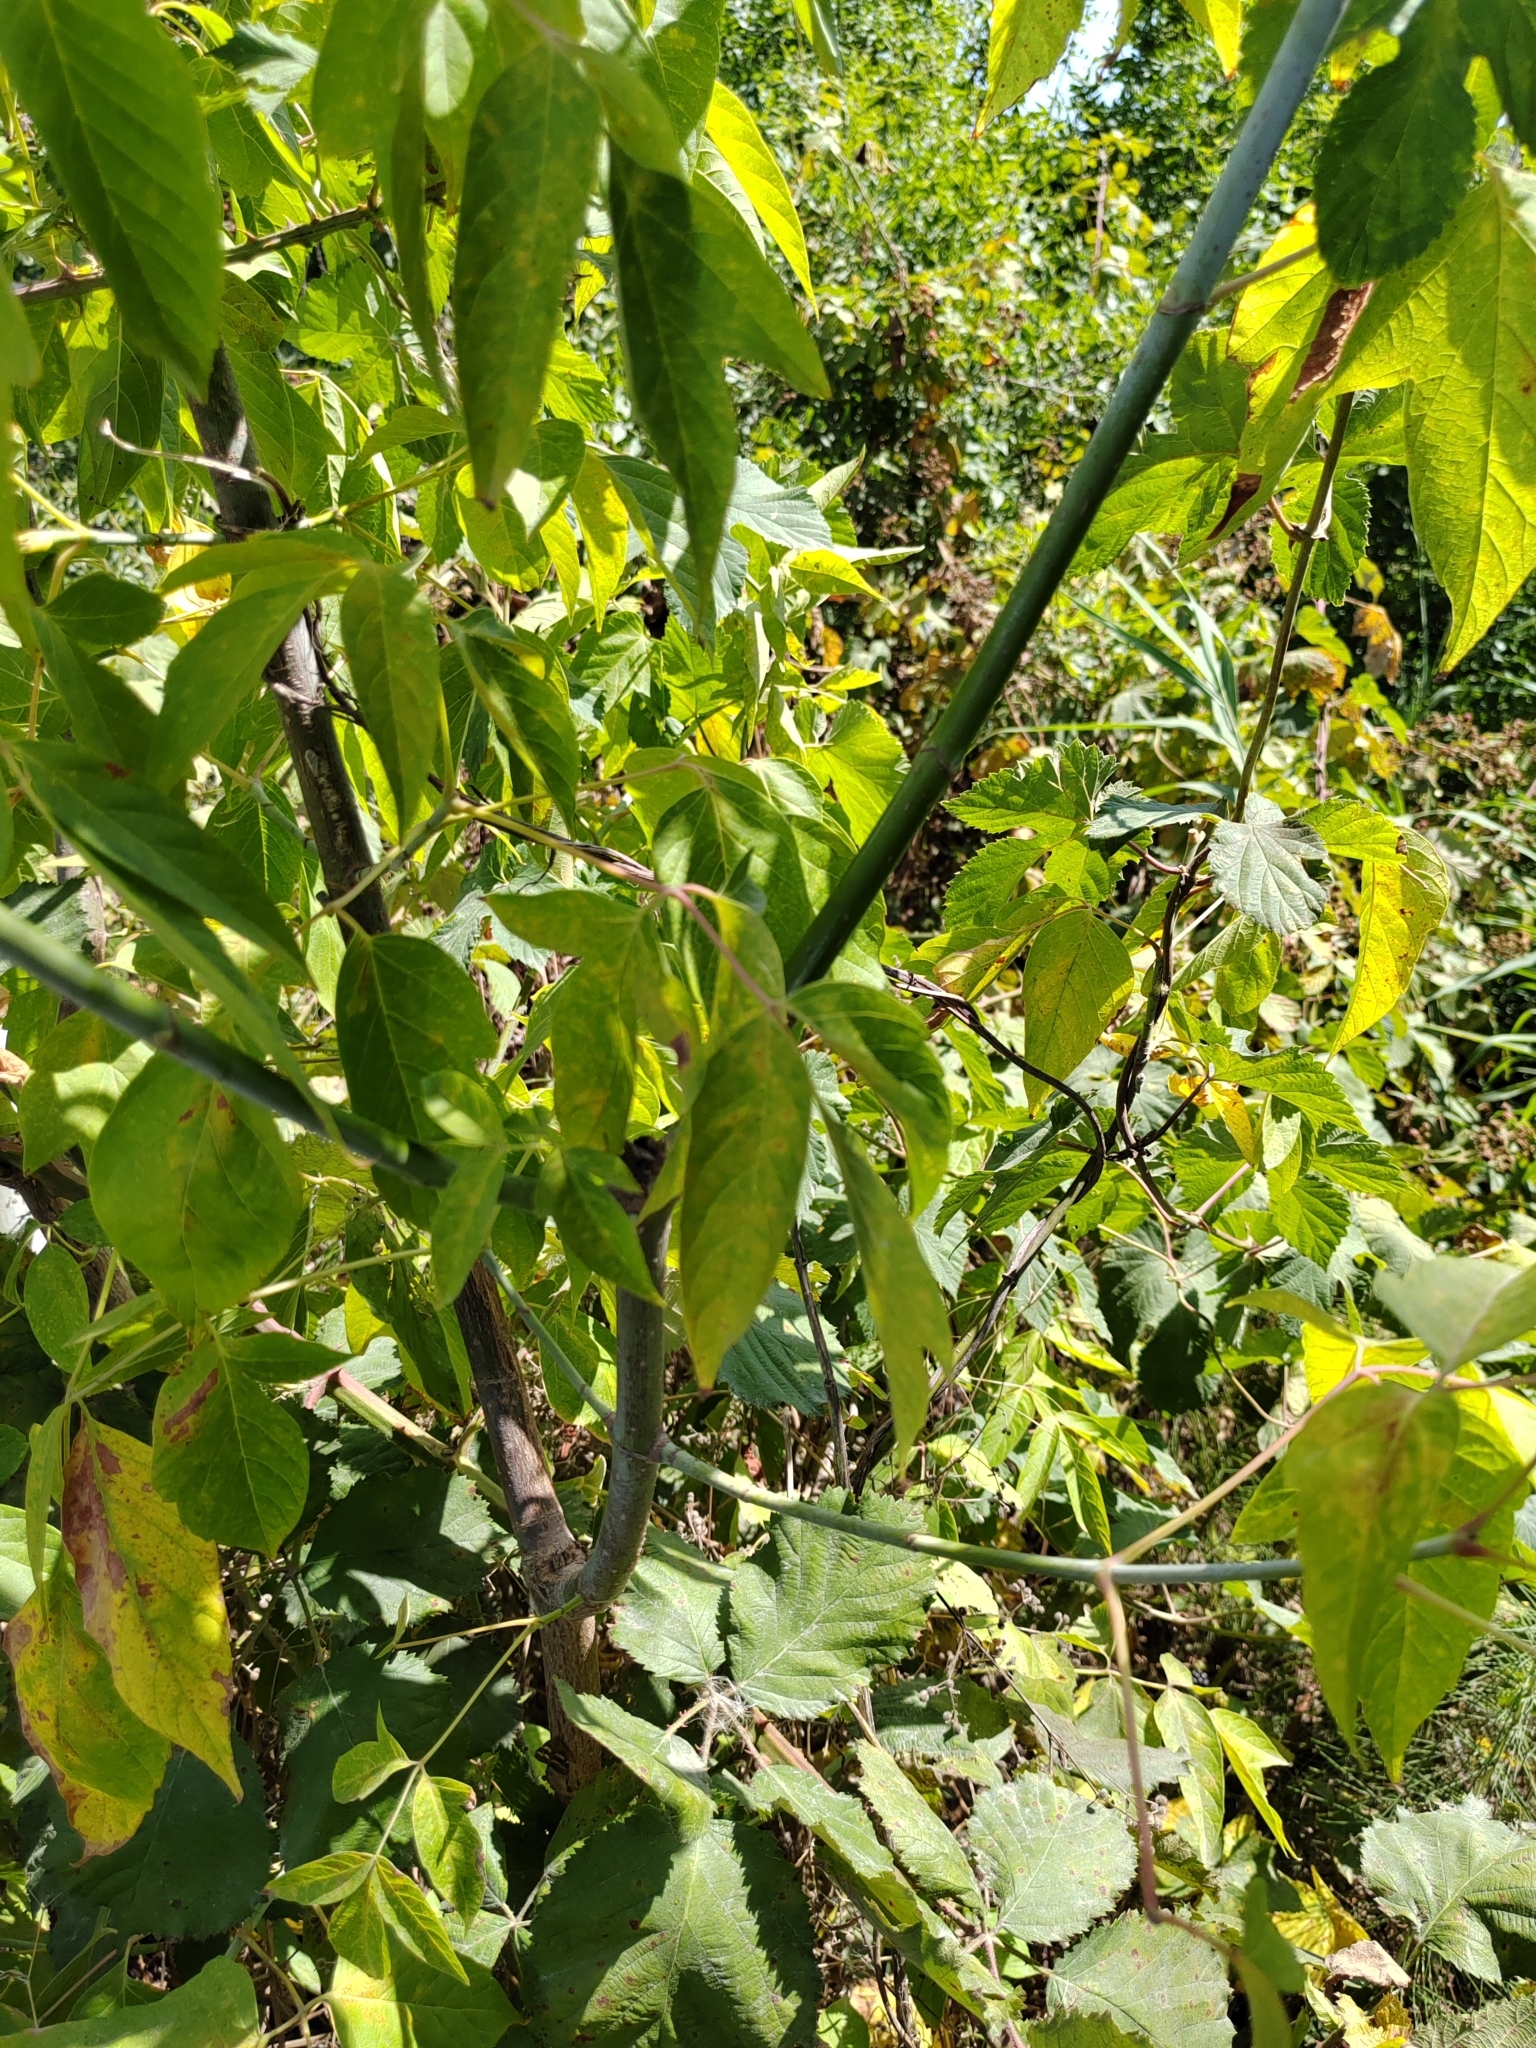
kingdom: Plantae
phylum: Tracheophyta
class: Magnoliopsida
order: Sapindales
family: Sapindaceae
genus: Acer
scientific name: Acer negundo
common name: Ashleaf maple
